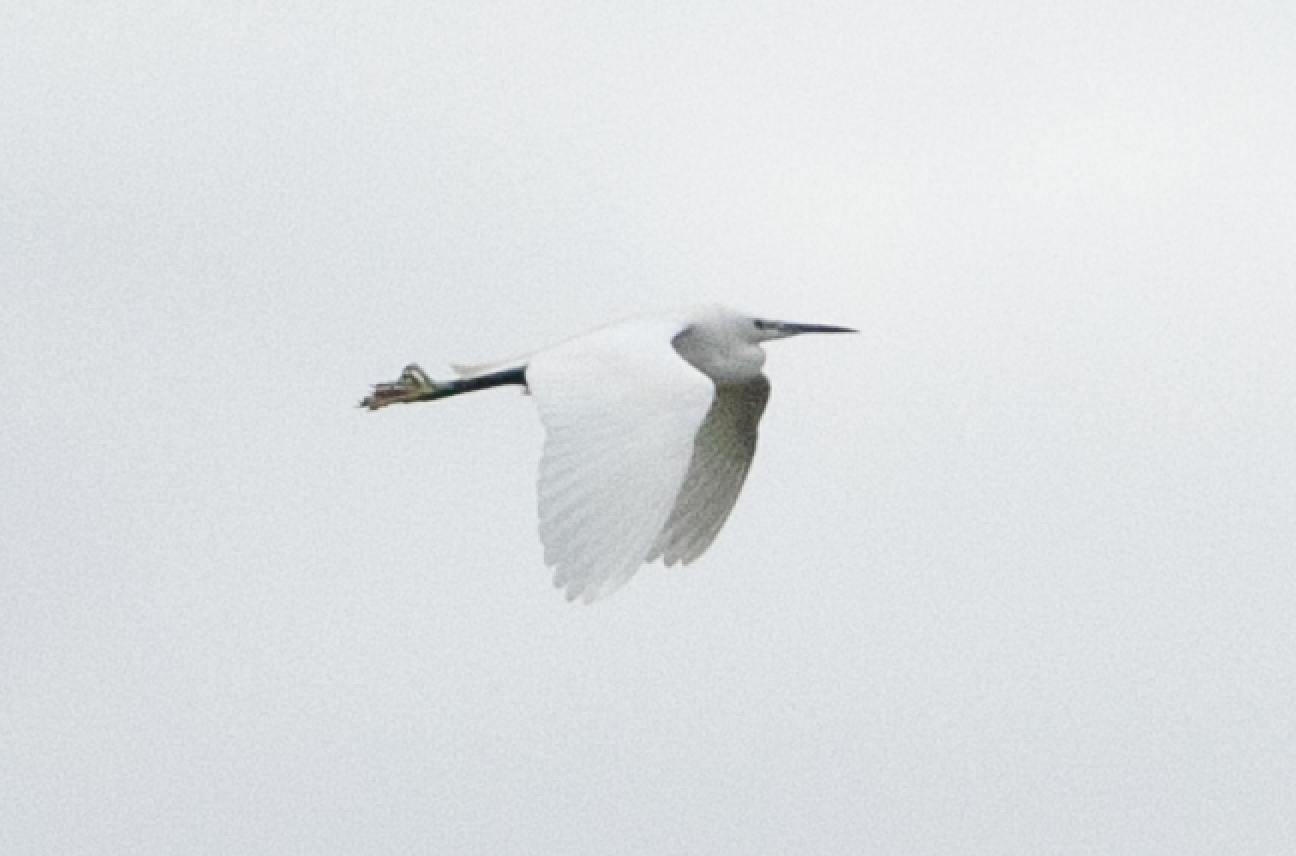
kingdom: Animalia
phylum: Chordata
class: Aves
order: Pelecaniformes
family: Ardeidae
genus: Egretta
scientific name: Egretta garzetta
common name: Little egret
